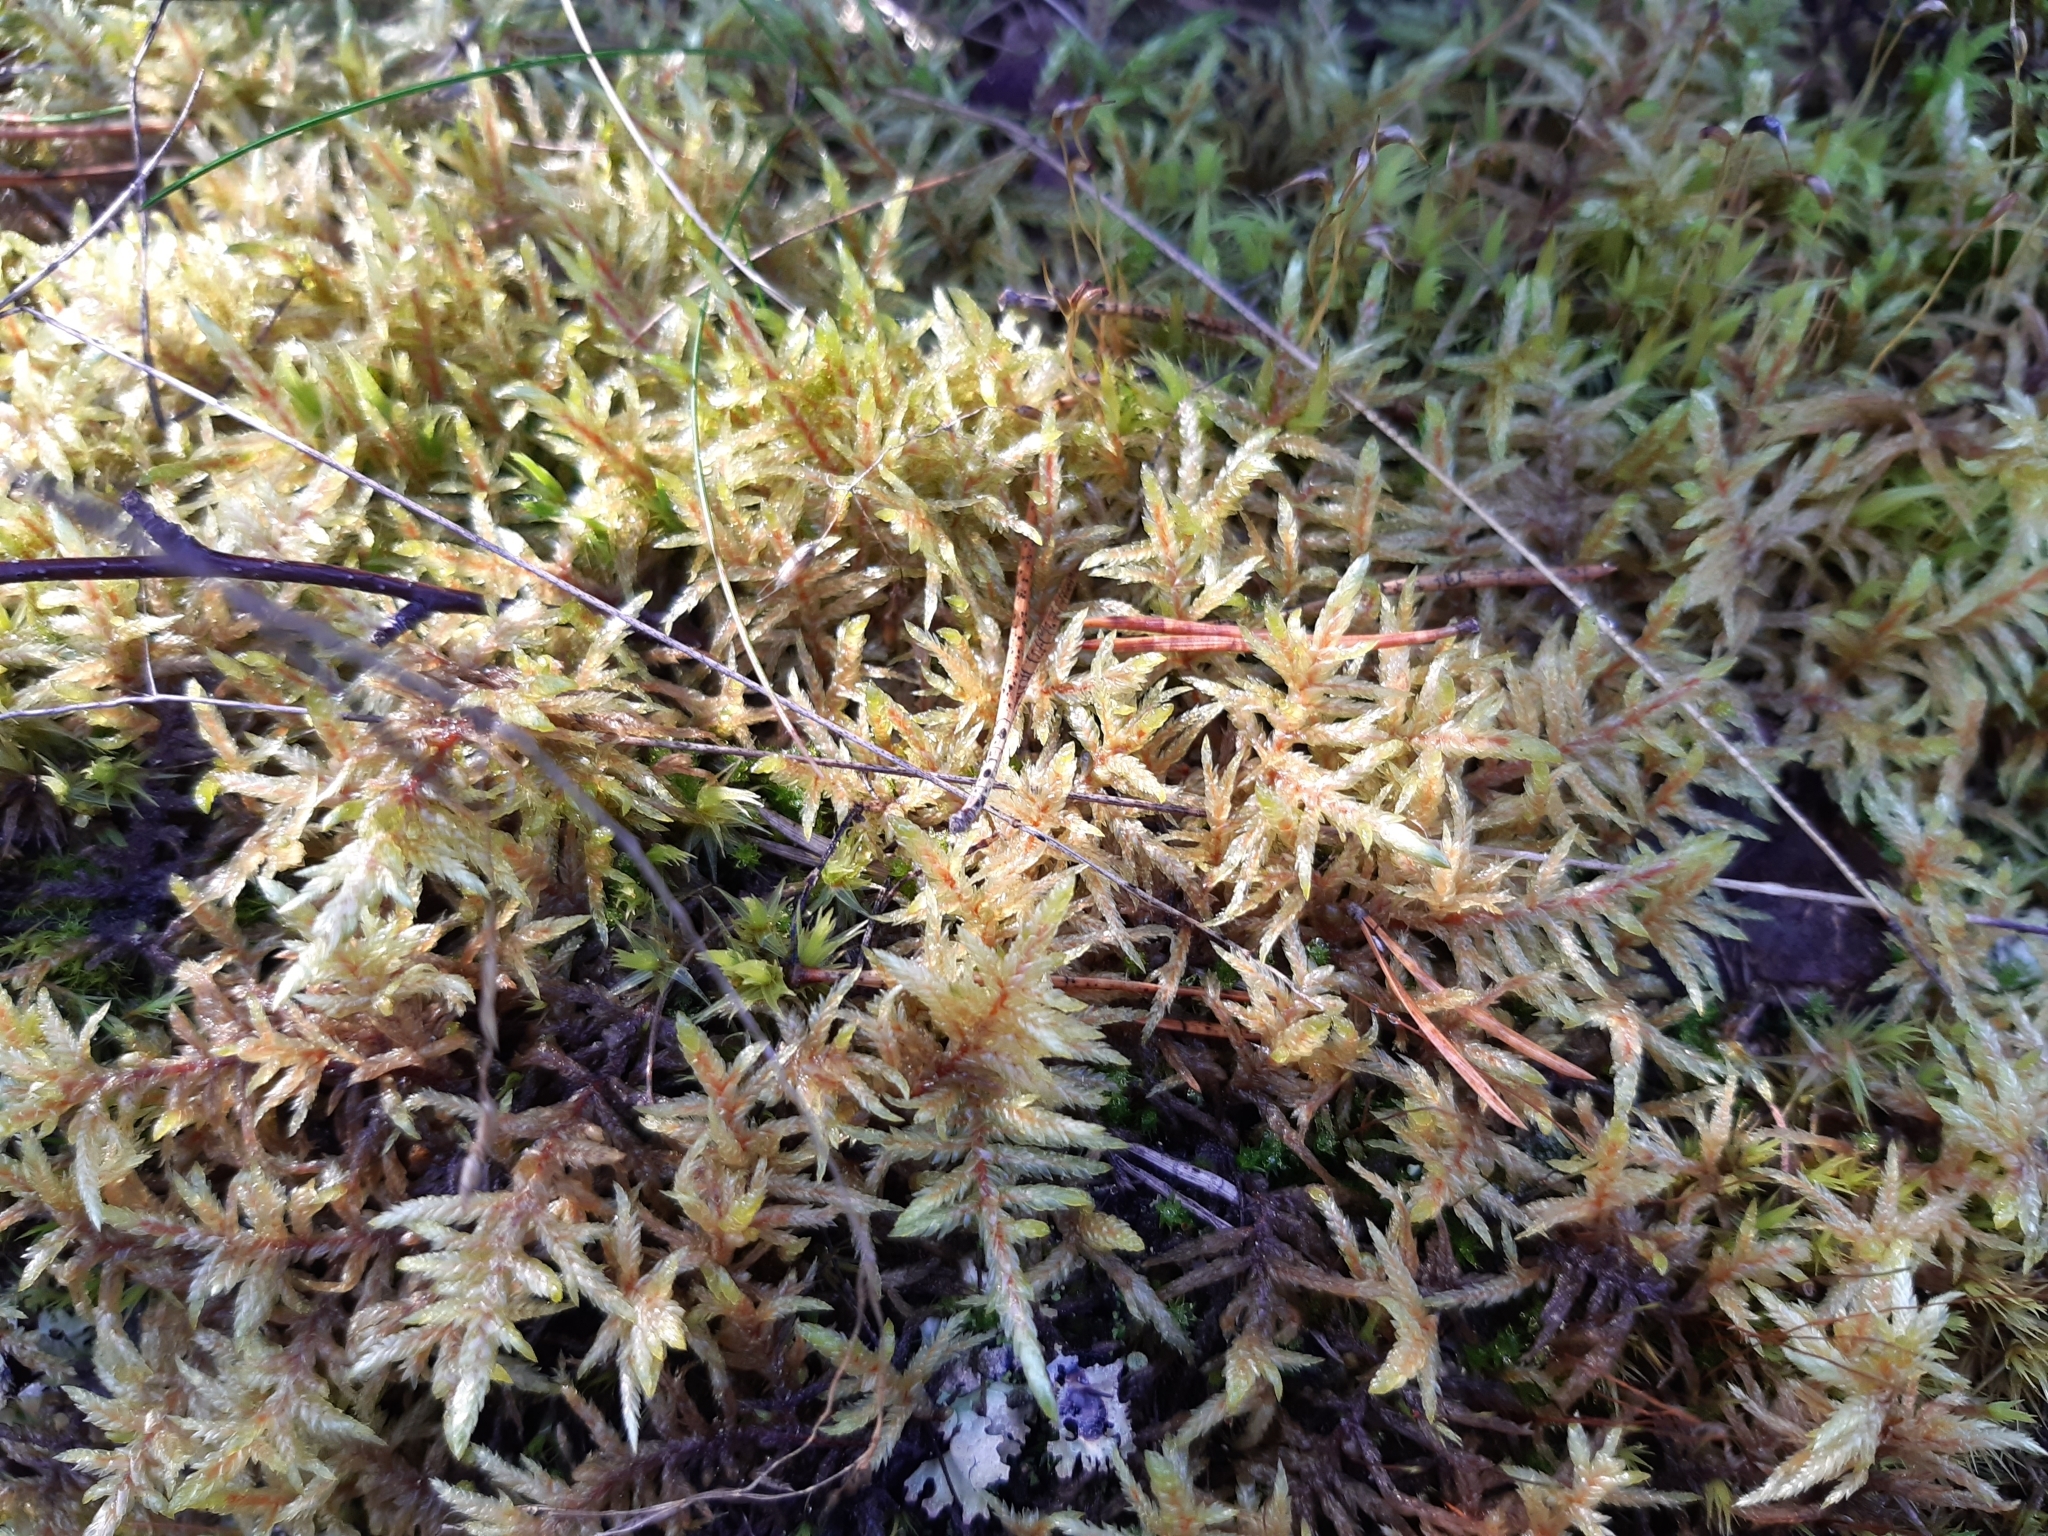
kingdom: Plantae
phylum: Bryophyta
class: Bryopsida
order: Hypnales
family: Hylocomiaceae
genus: Pleurozium
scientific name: Pleurozium schreberi
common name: Red-stemmed feather moss
